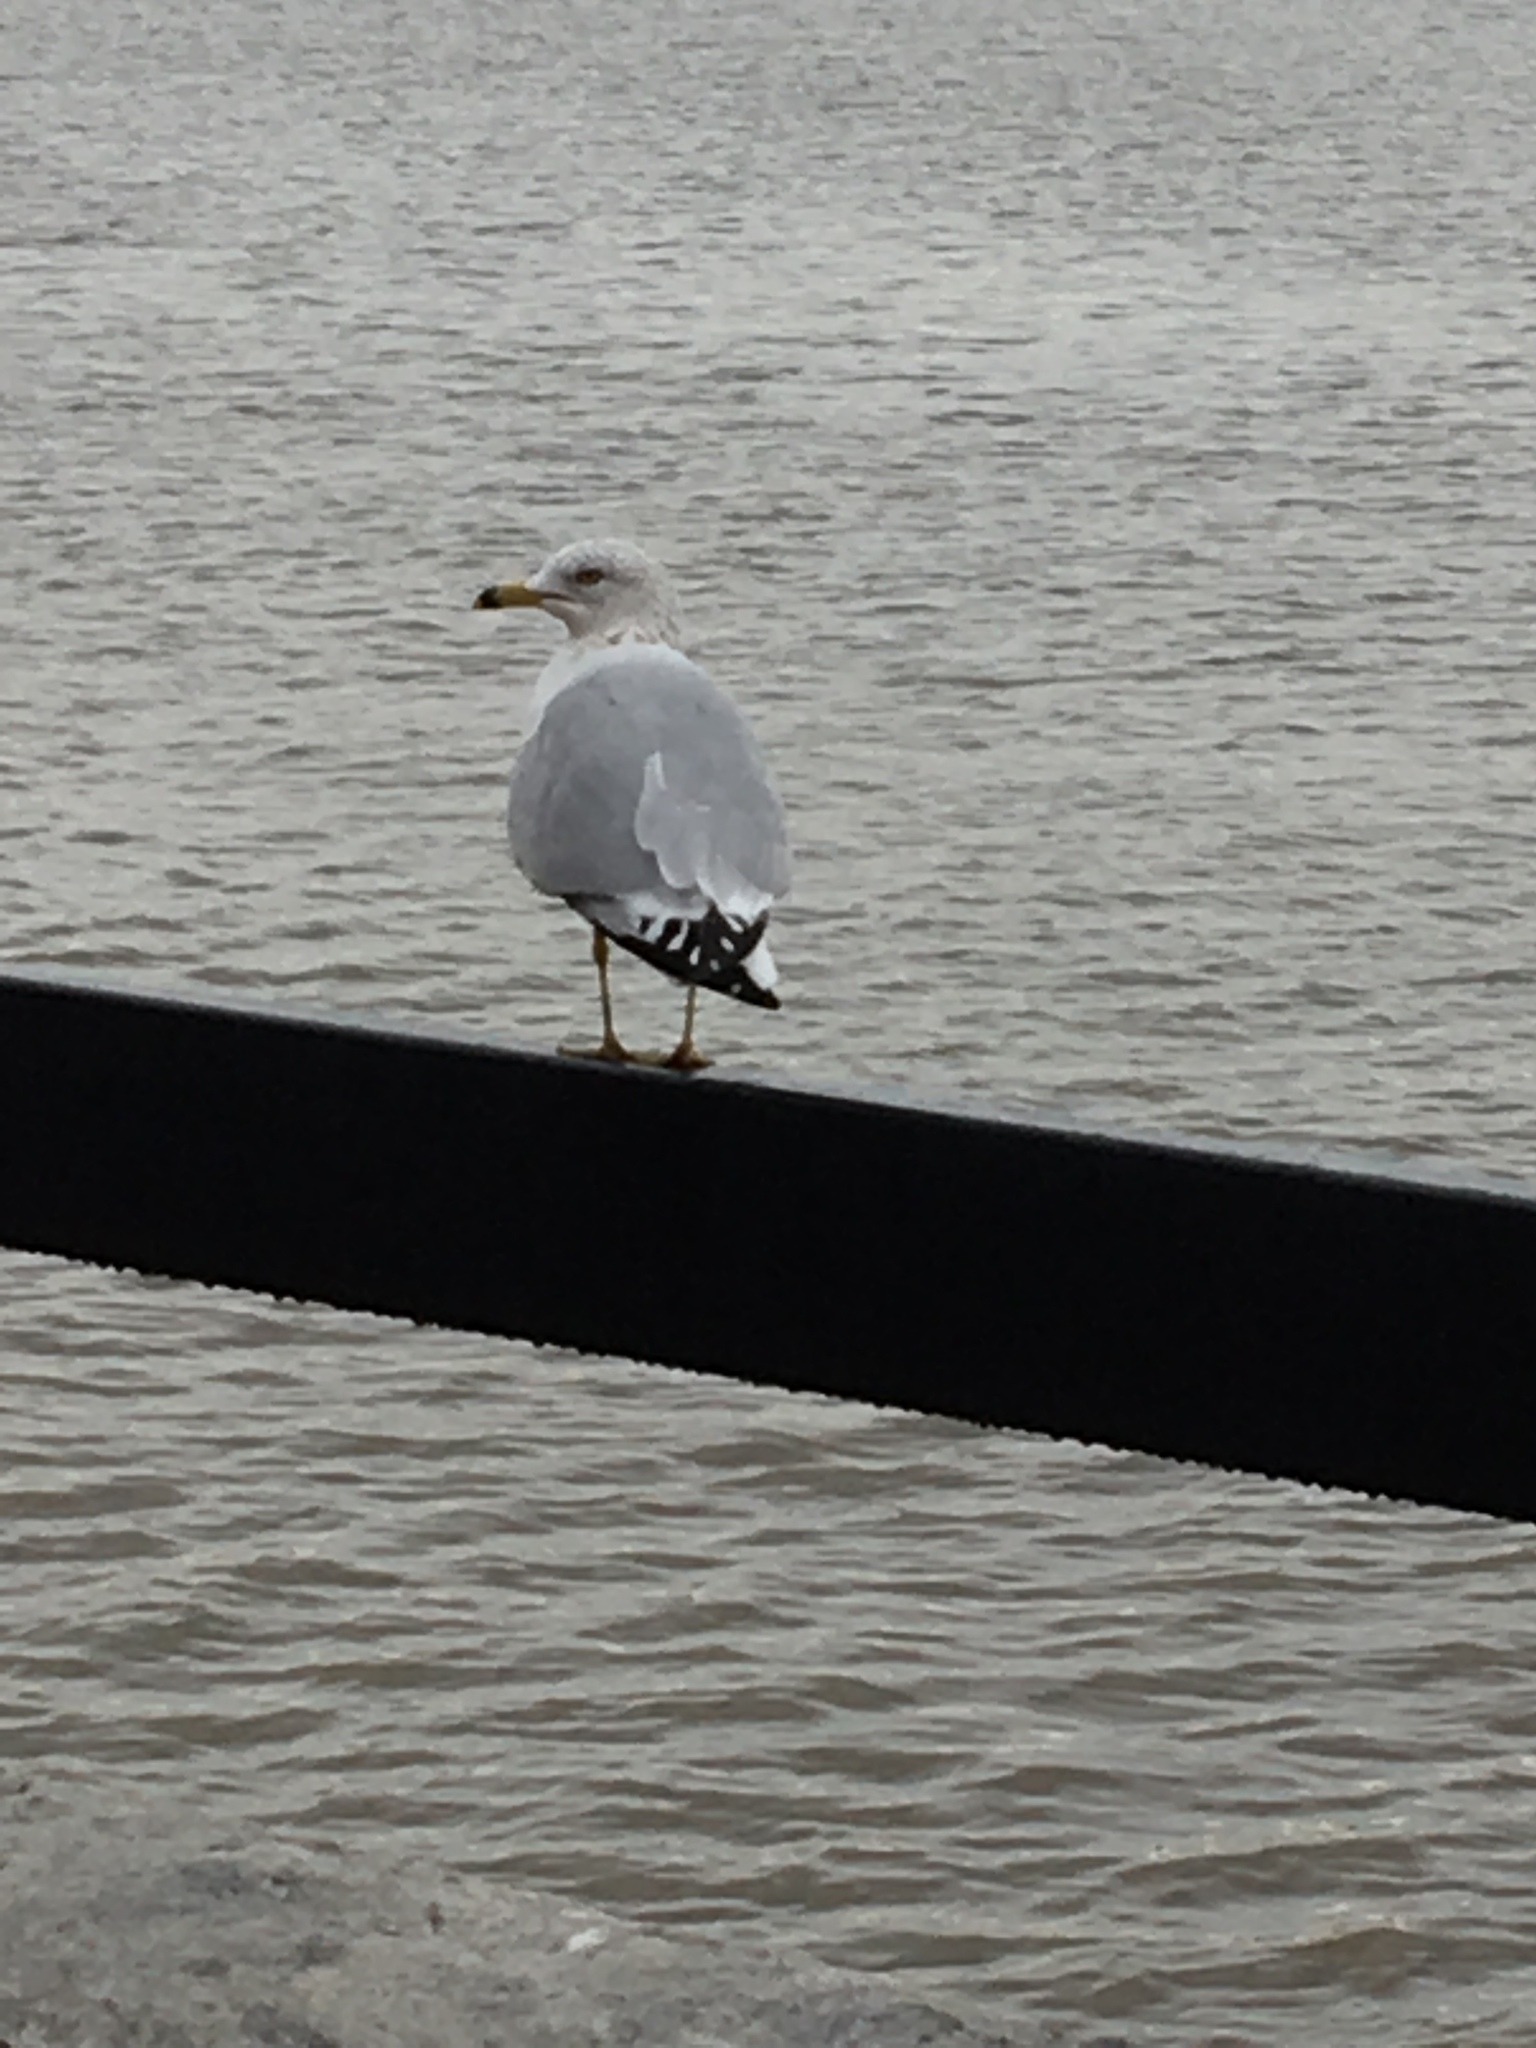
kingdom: Animalia
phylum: Chordata
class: Aves
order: Charadriiformes
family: Laridae
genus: Larus
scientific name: Larus delawarensis
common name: Ring-billed gull
